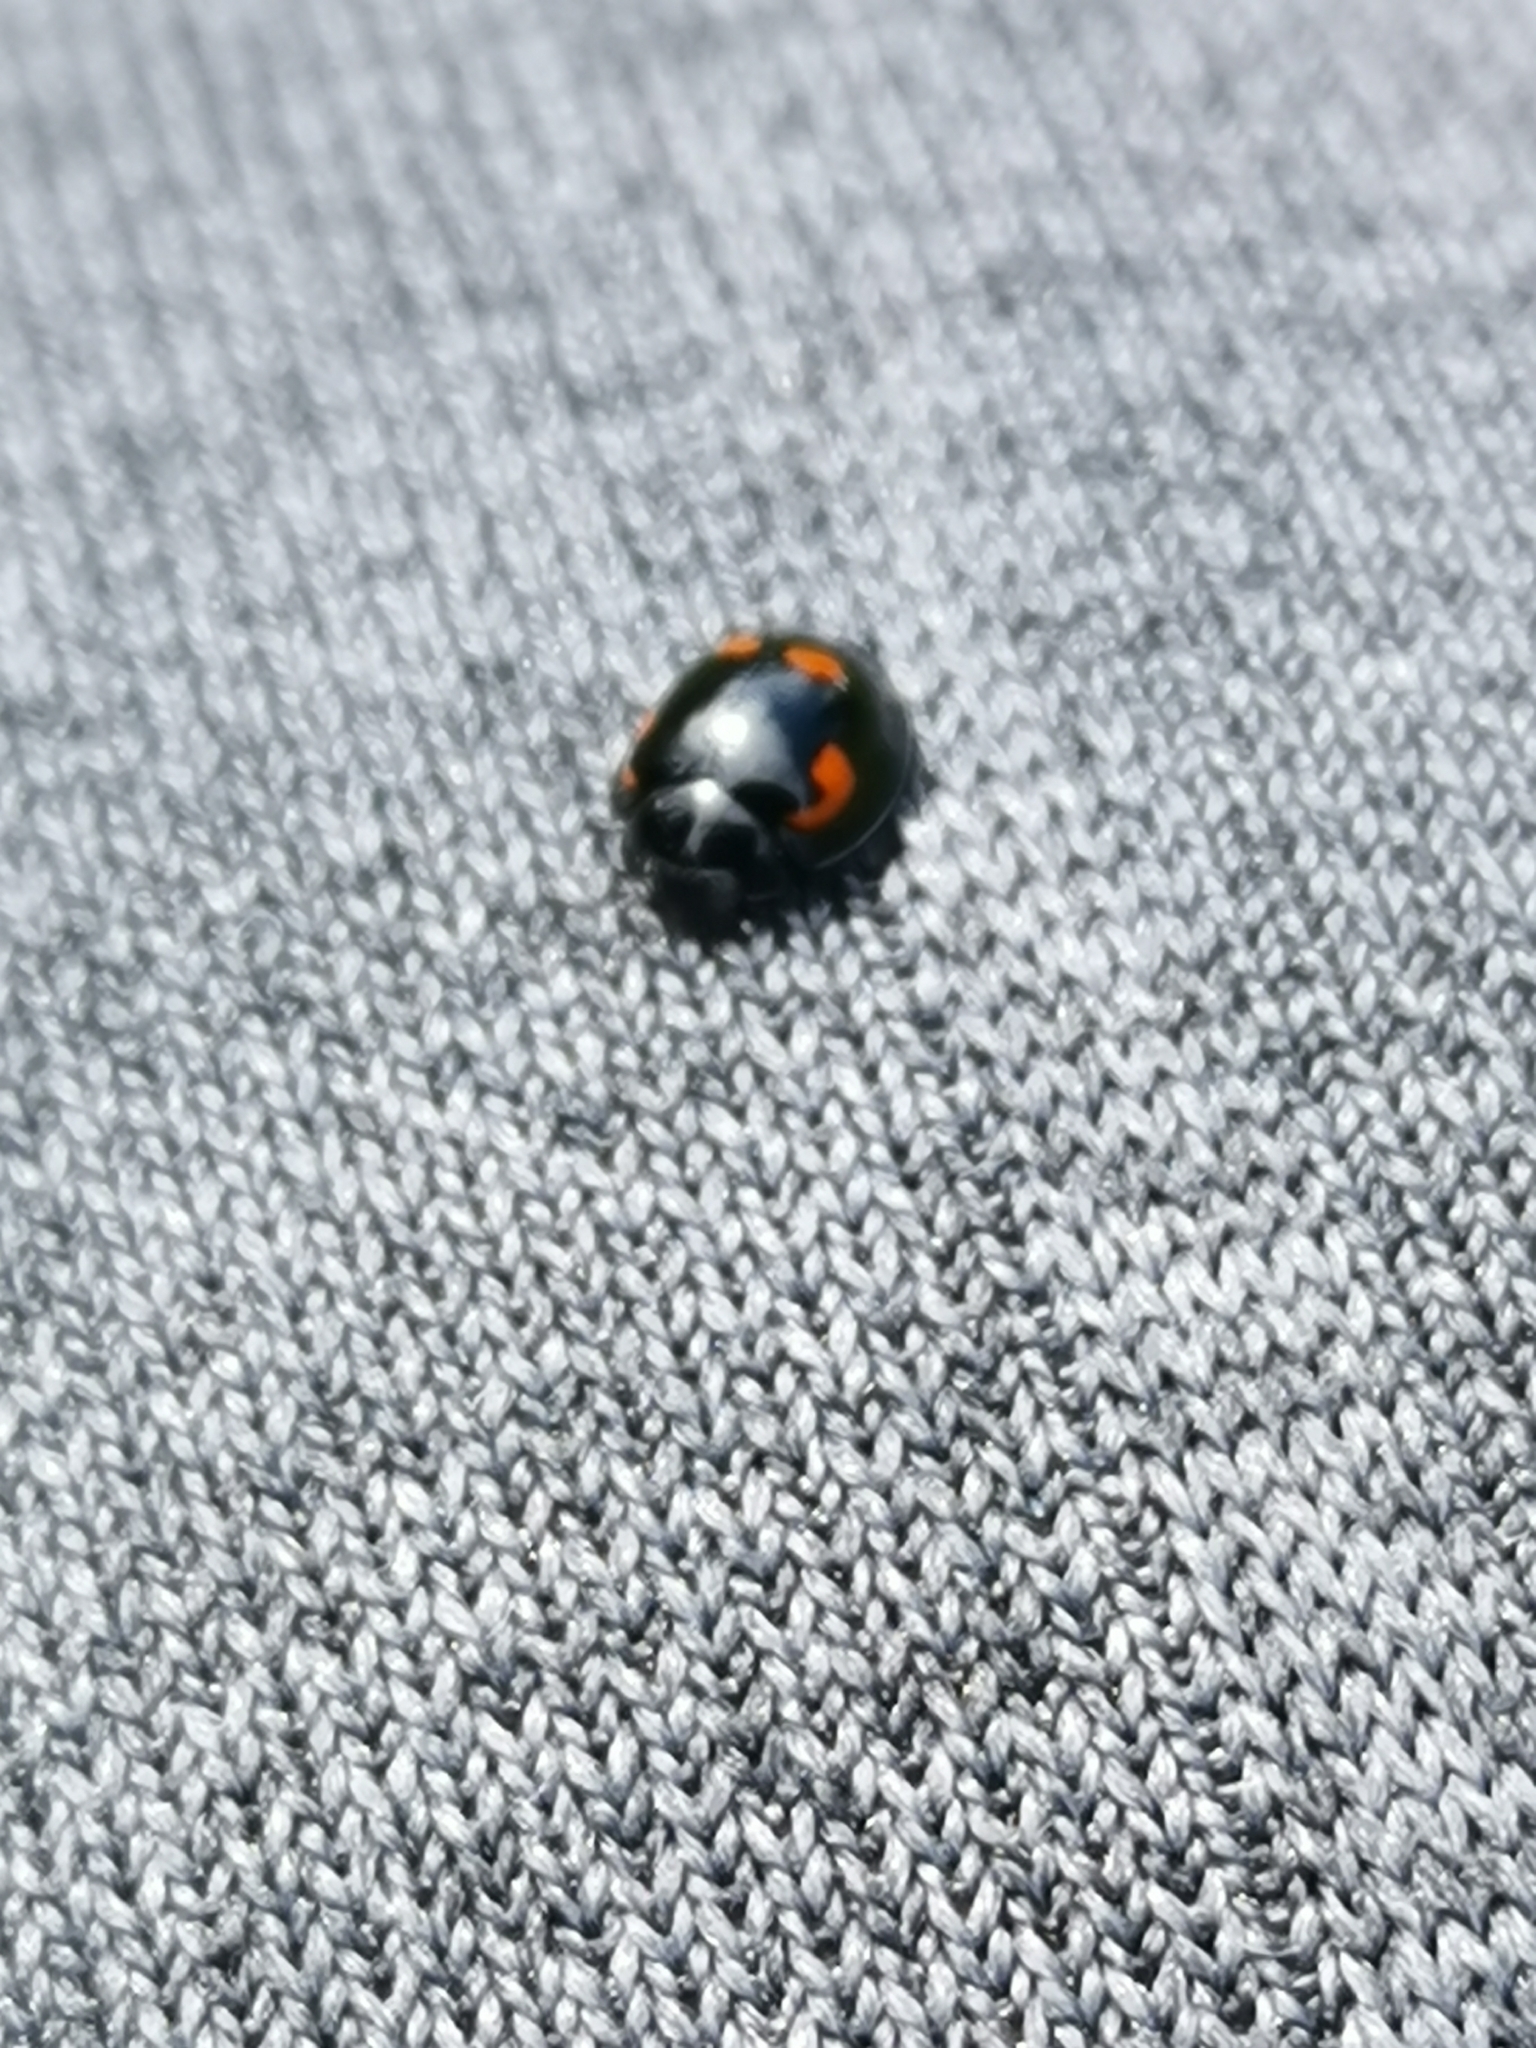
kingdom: Animalia
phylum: Arthropoda
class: Insecta
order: Coleoptera
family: Coccinellidae
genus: Brumus
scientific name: Brumus quadripustulatus
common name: Ladybird beetle
